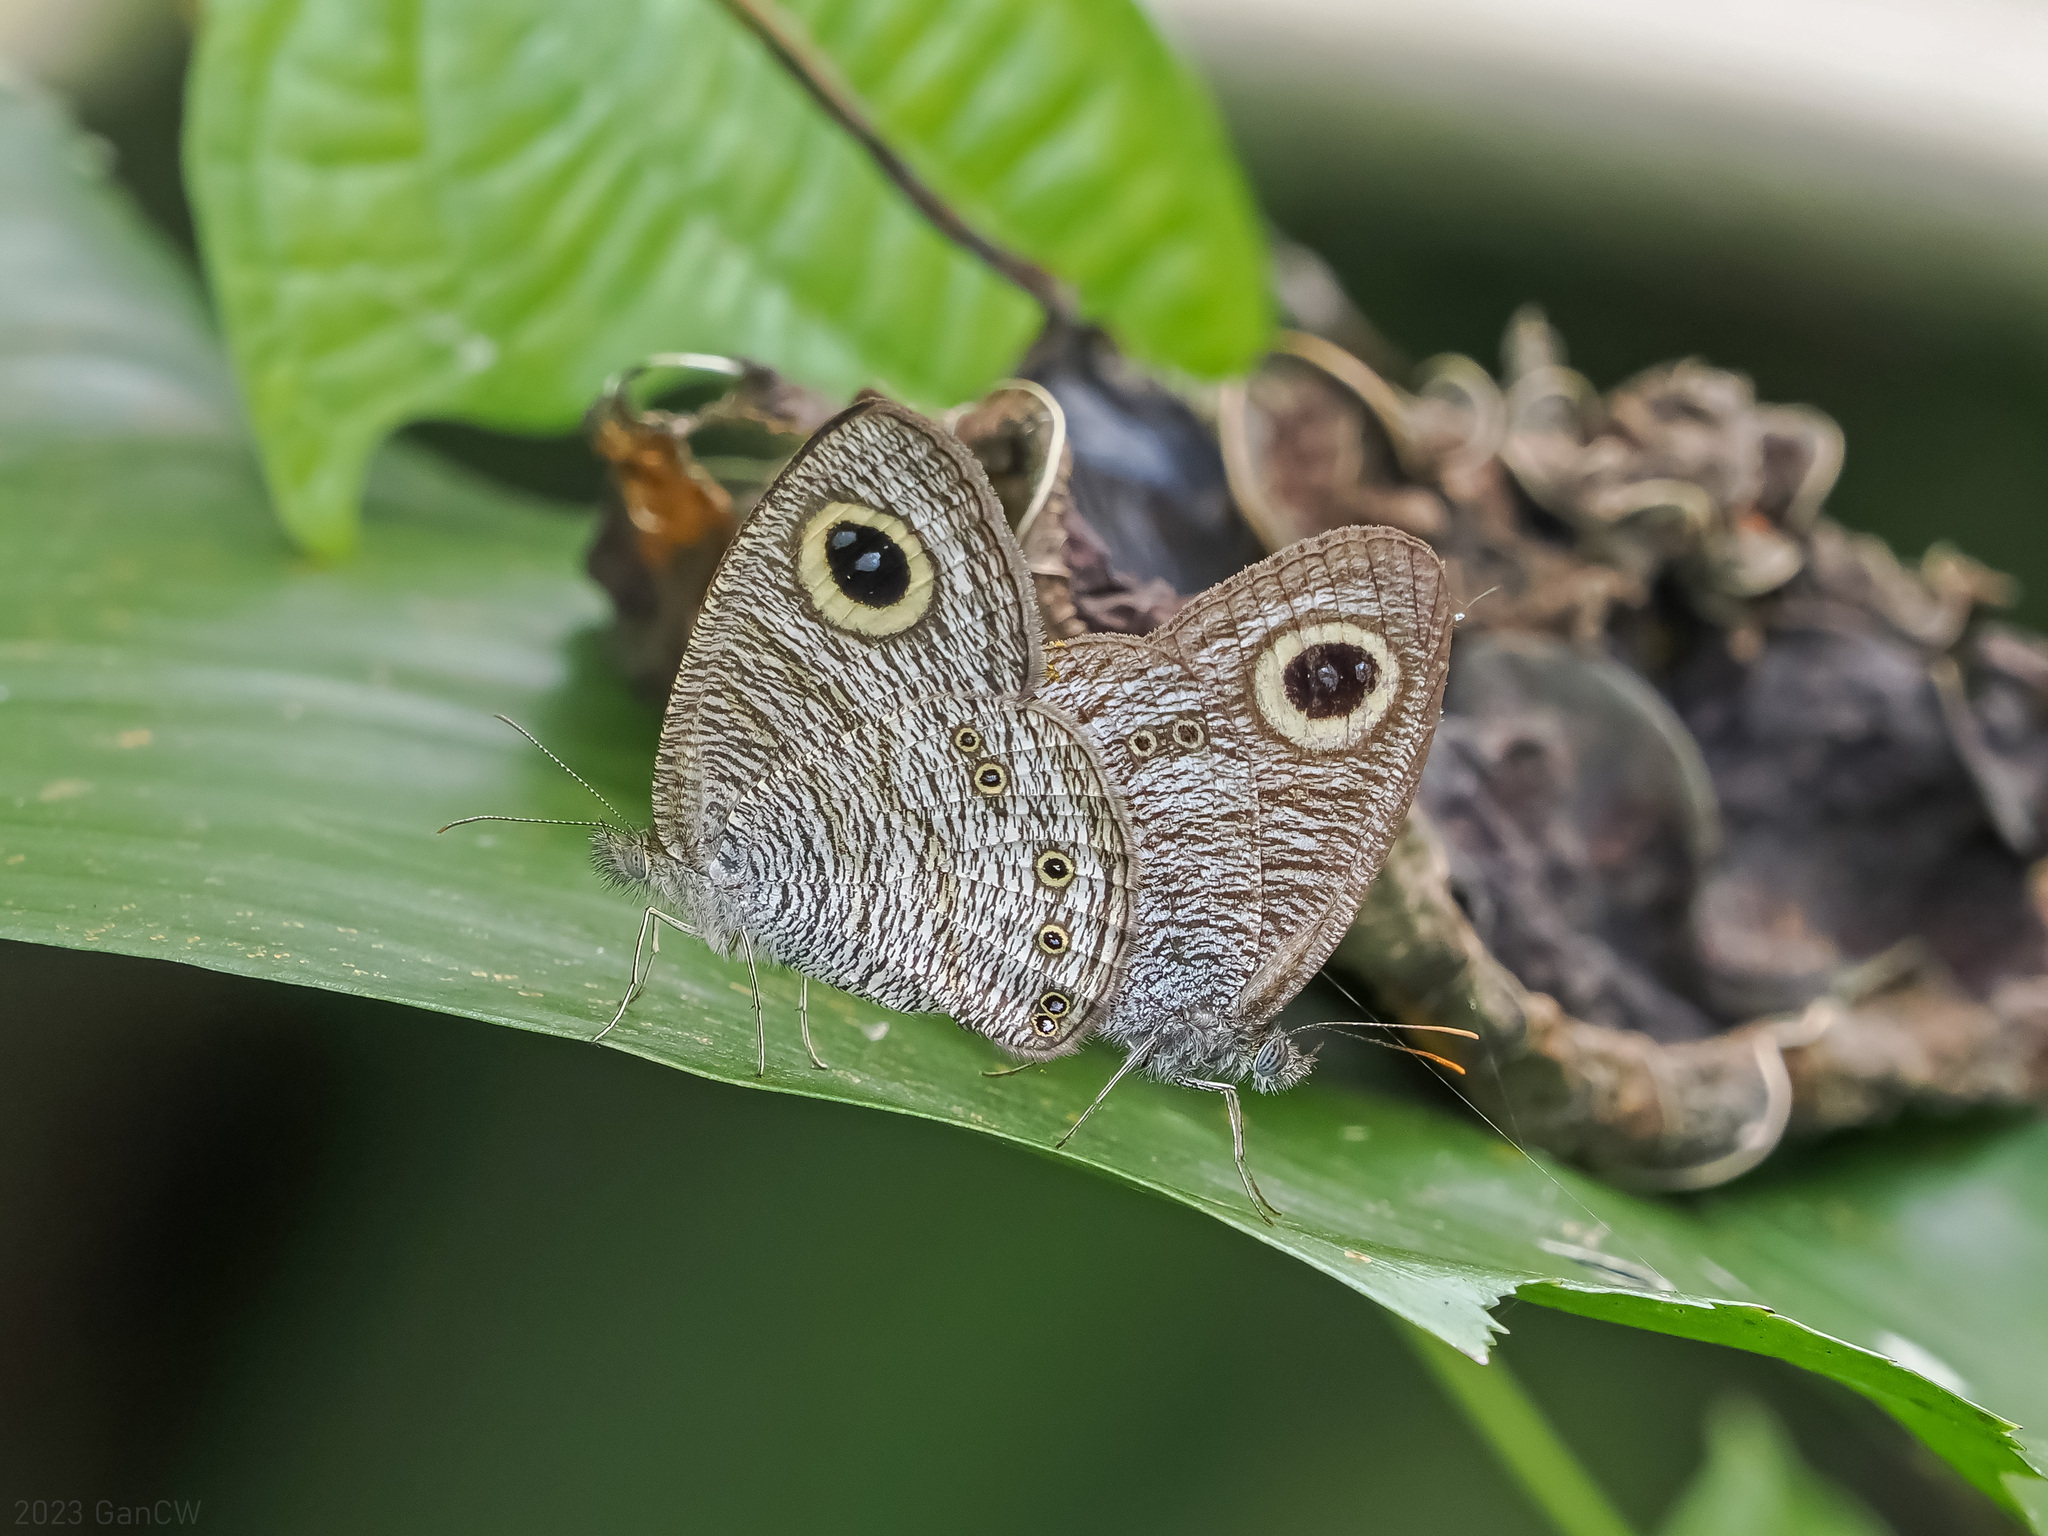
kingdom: Animalia
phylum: Arthropoda
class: Insecta
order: Lepidoptera
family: Nymphalidae
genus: Ypthima
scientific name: Ypthima baldus
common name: Common five-ring
